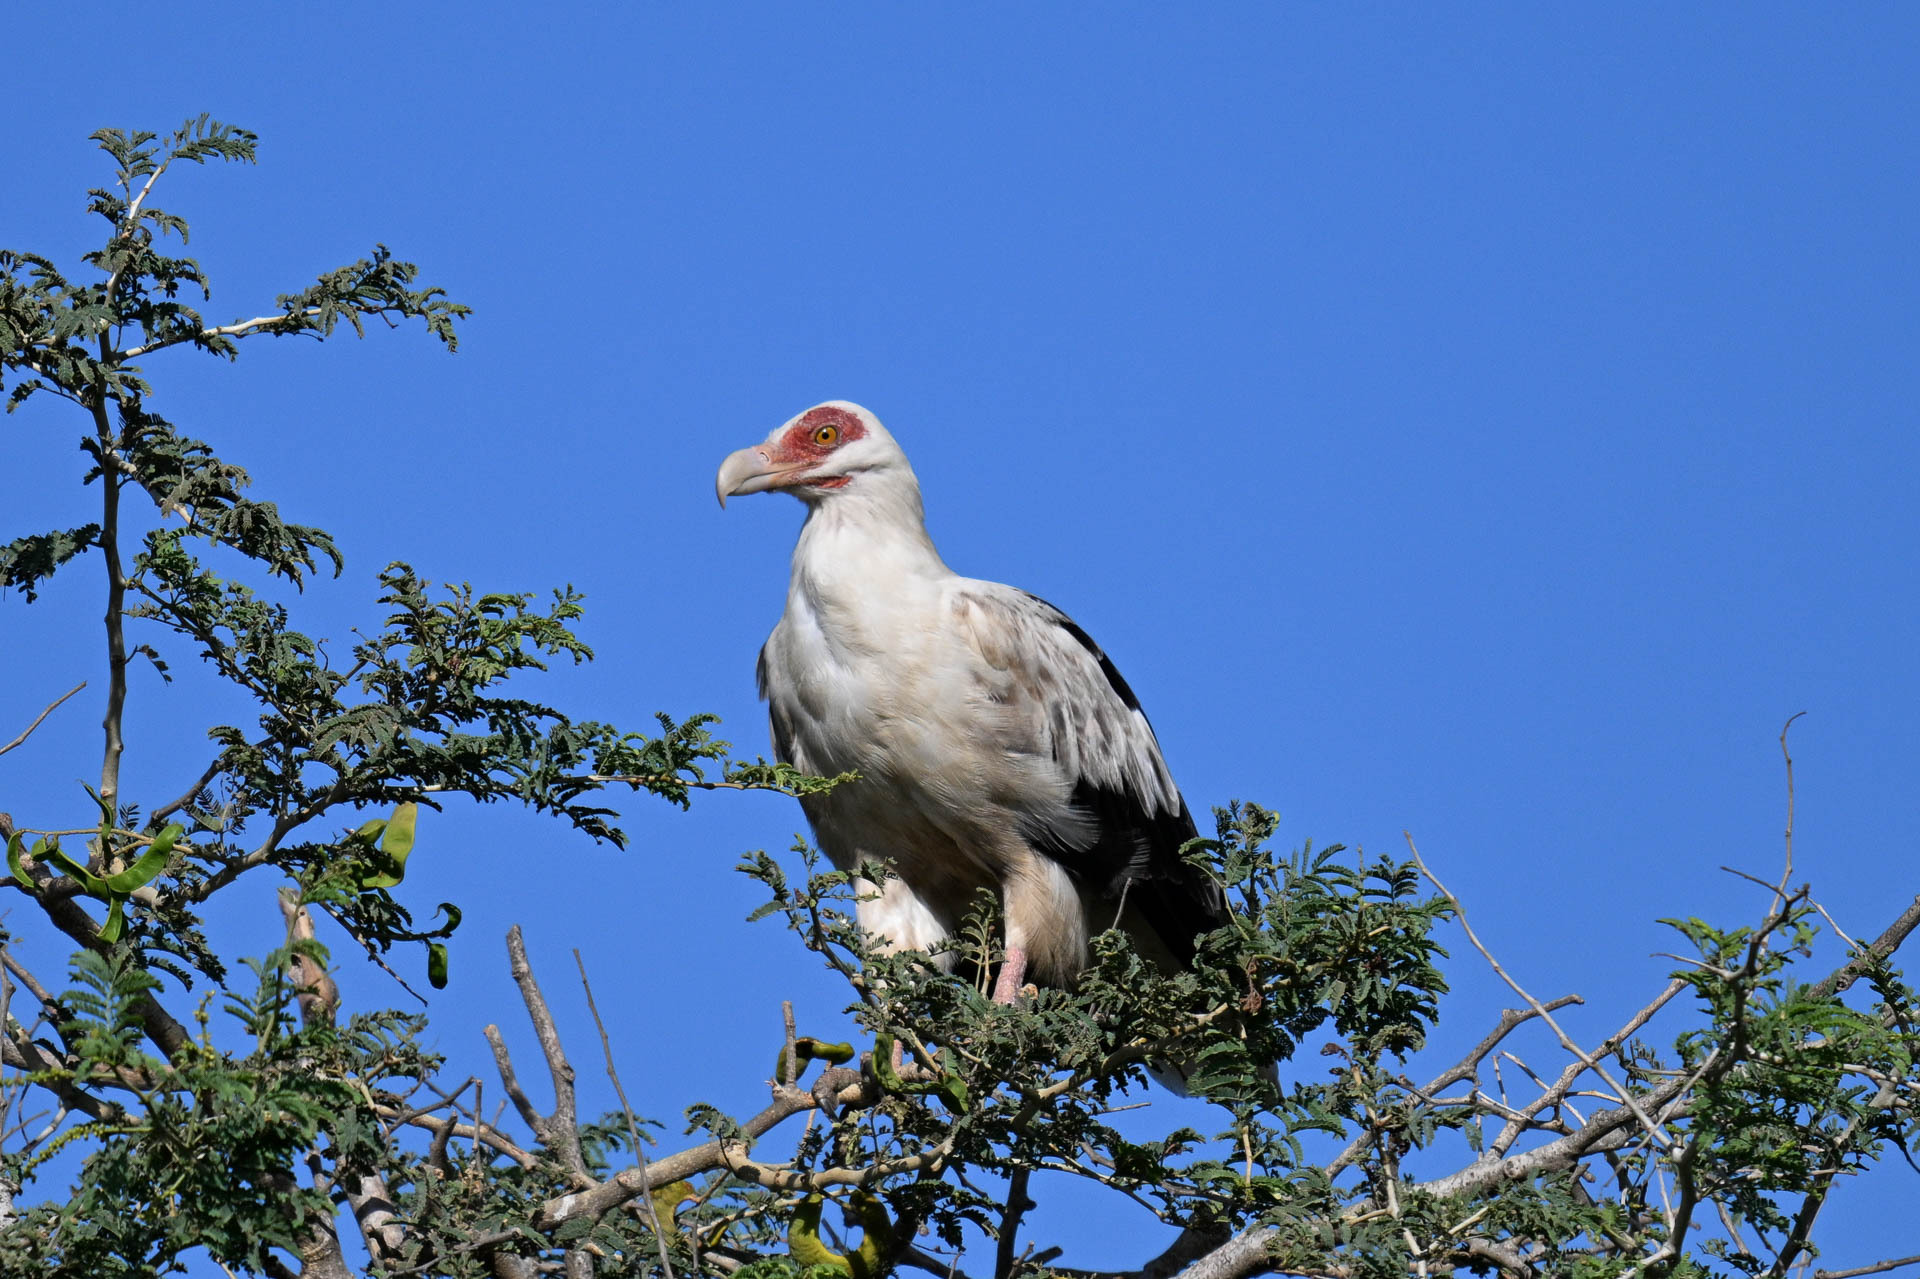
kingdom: Animalia
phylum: Chordata
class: Aves
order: Accipitriformes
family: Accipitridae
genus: Gypohierax
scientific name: Gypohierax angolensis
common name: Palm-nut vulture
